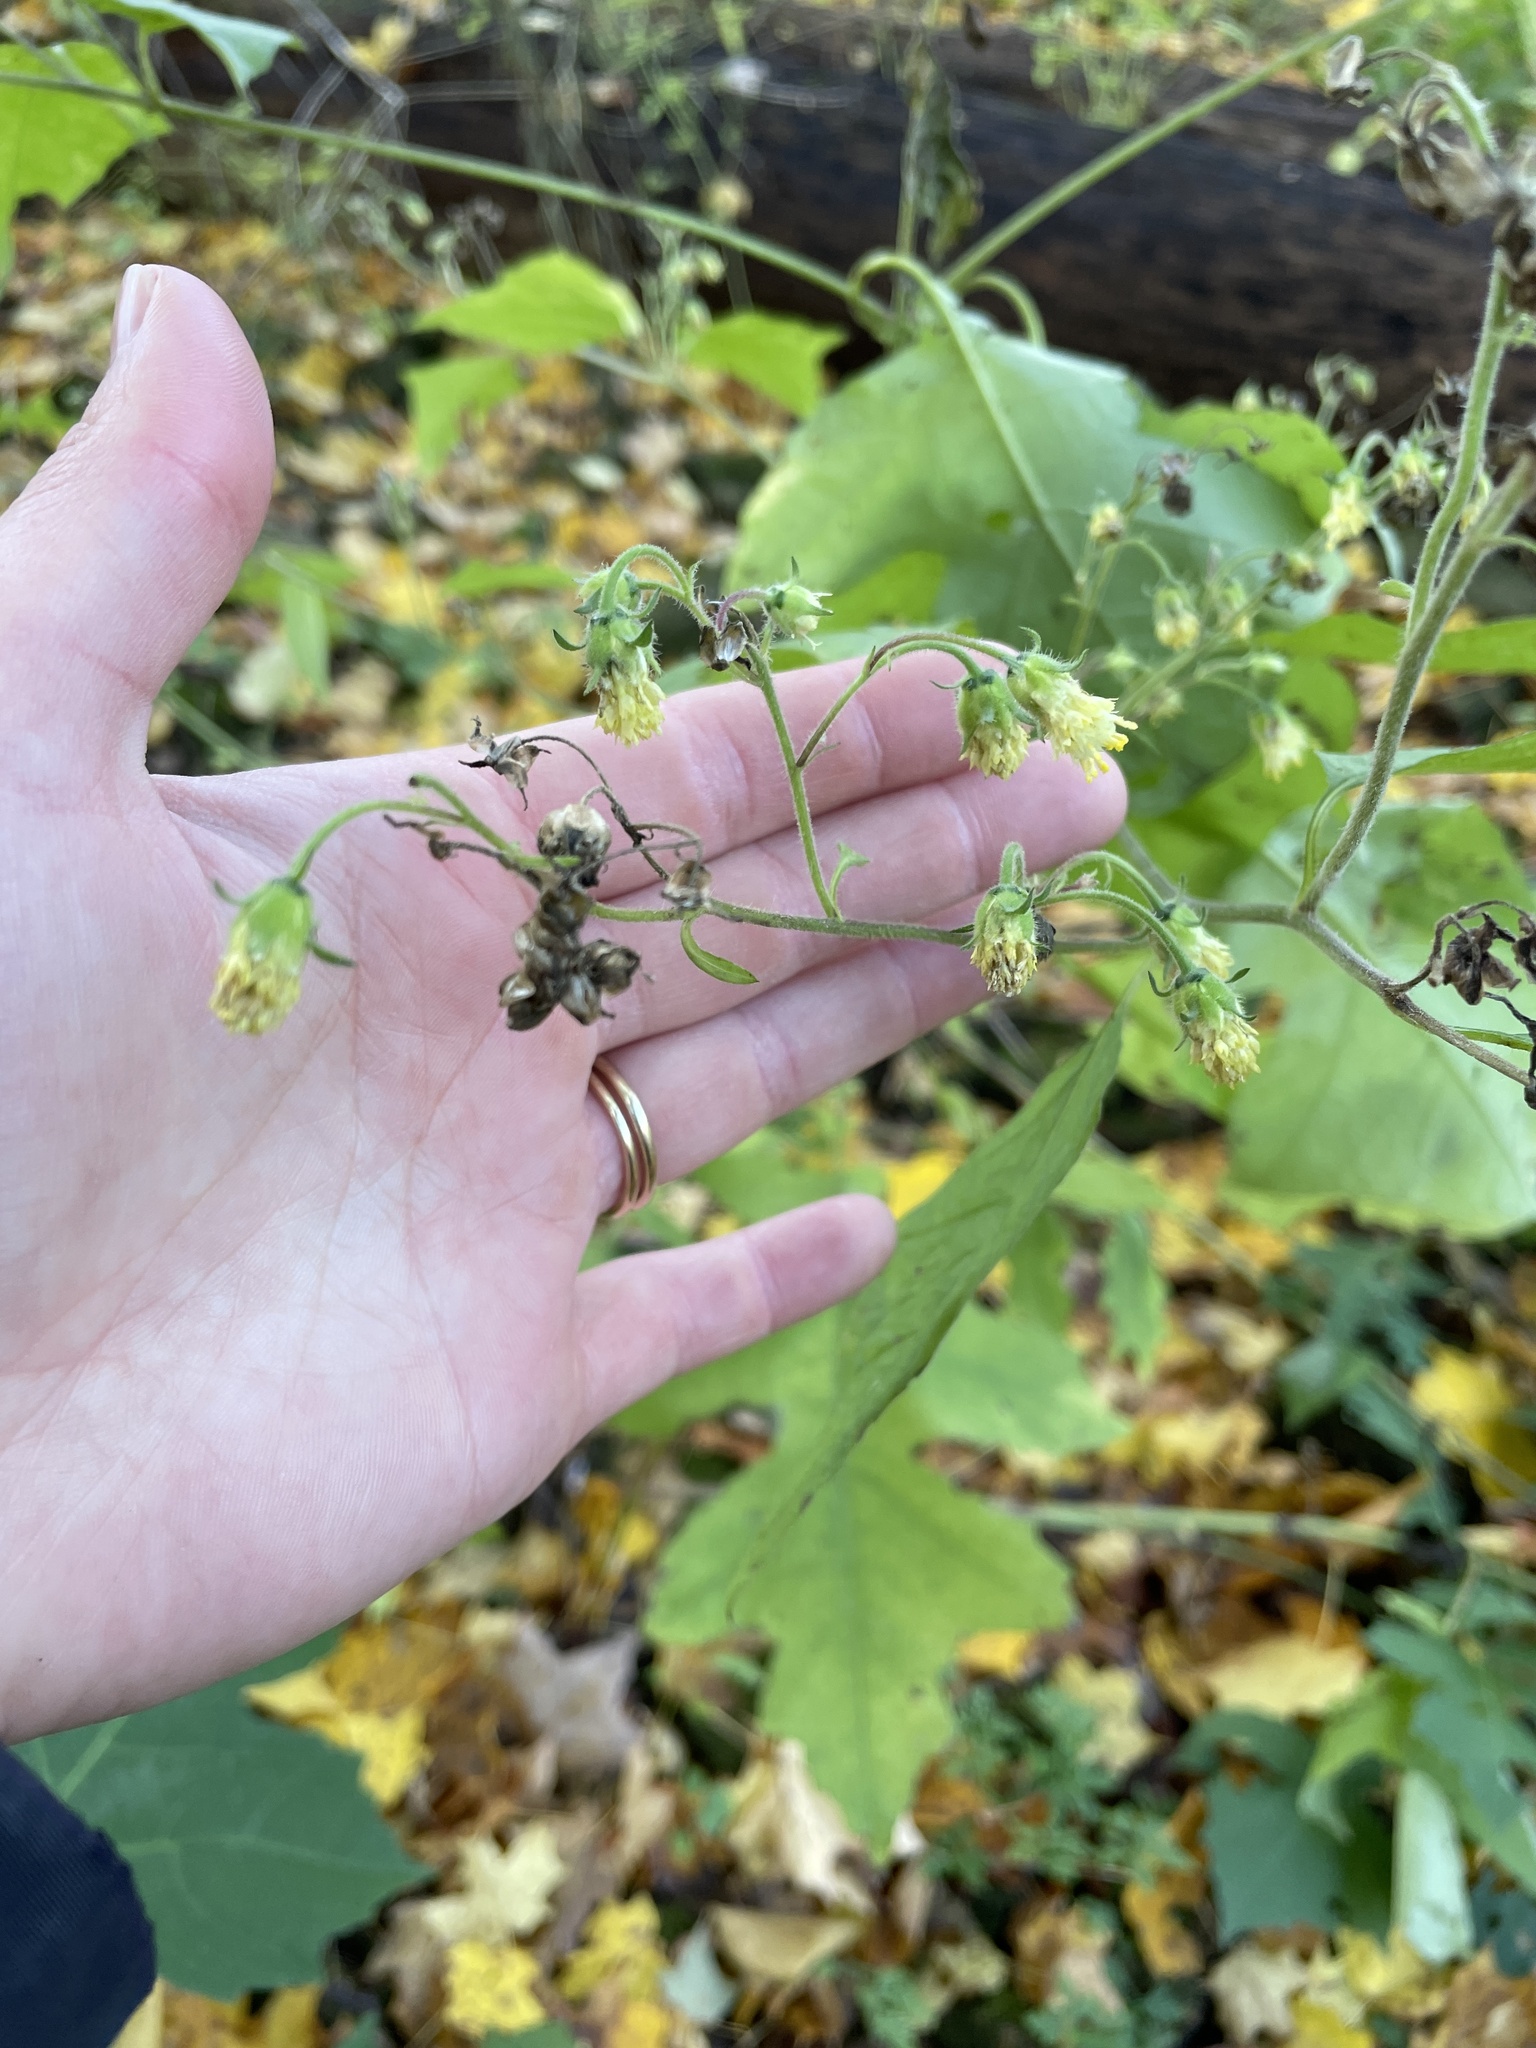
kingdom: Plantae
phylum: Tracheophyta
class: Magnoliopsida
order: Asterales
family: Asteraceae
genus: Polymnia
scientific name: Polymnia canadensis
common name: Pale-flowered leafcup
